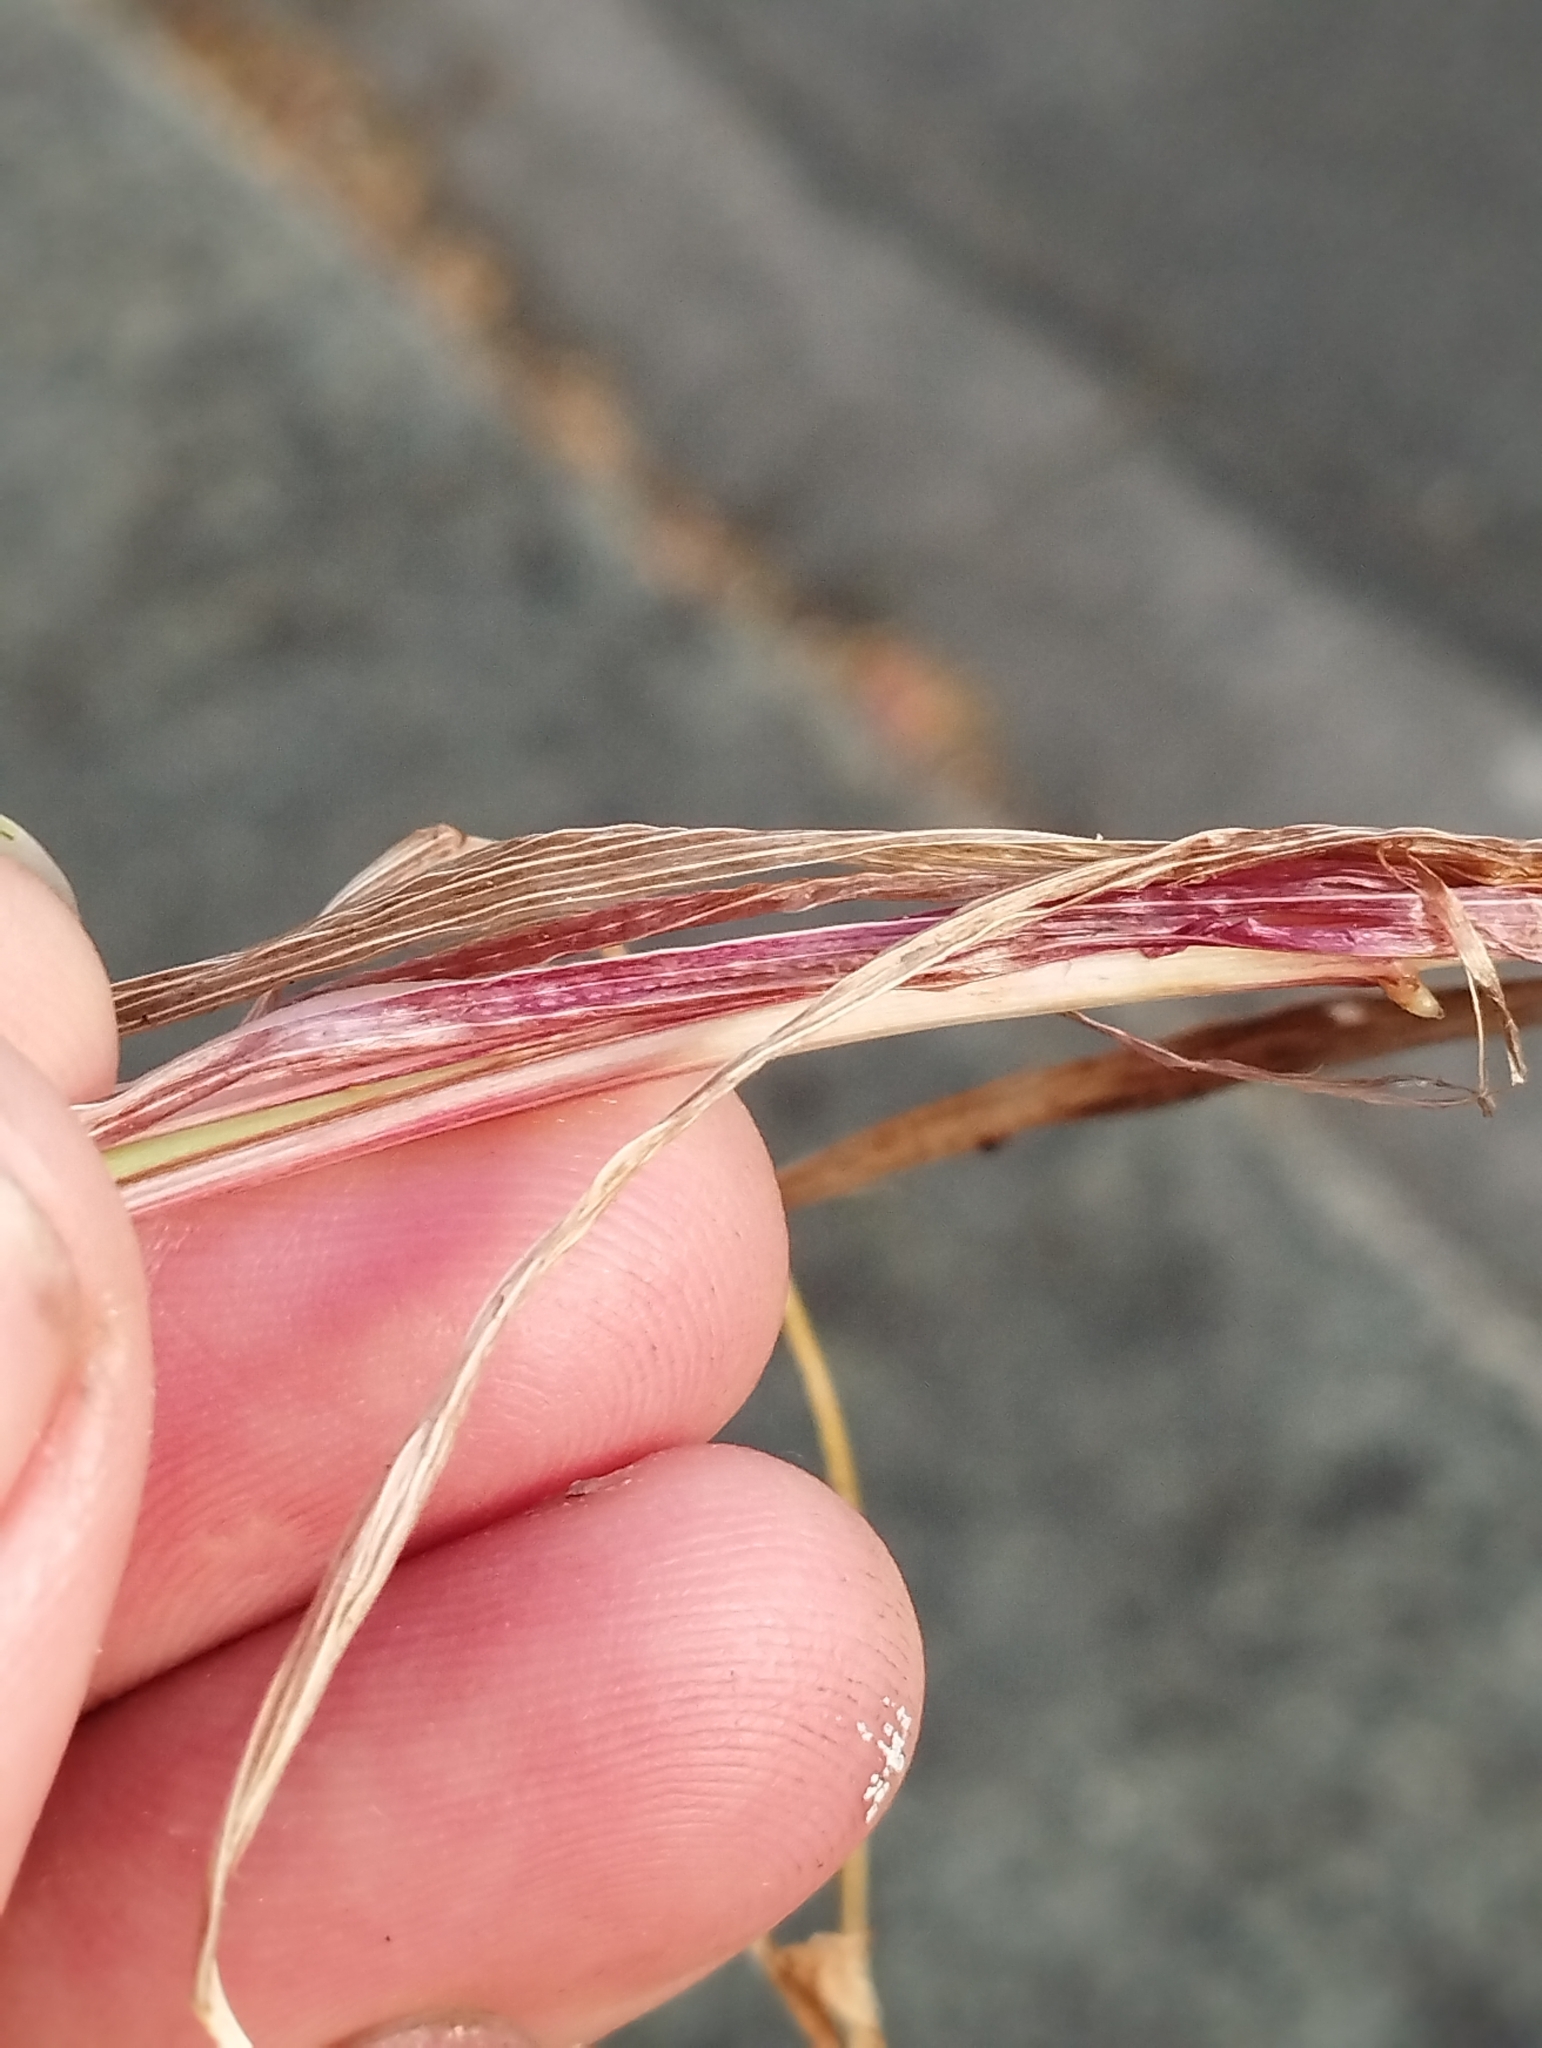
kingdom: Plantae
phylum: Tracheophyta
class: Liliopsida
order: Poales
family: Poaceae
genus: Festuca
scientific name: Festuca rubra
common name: Red fescue
